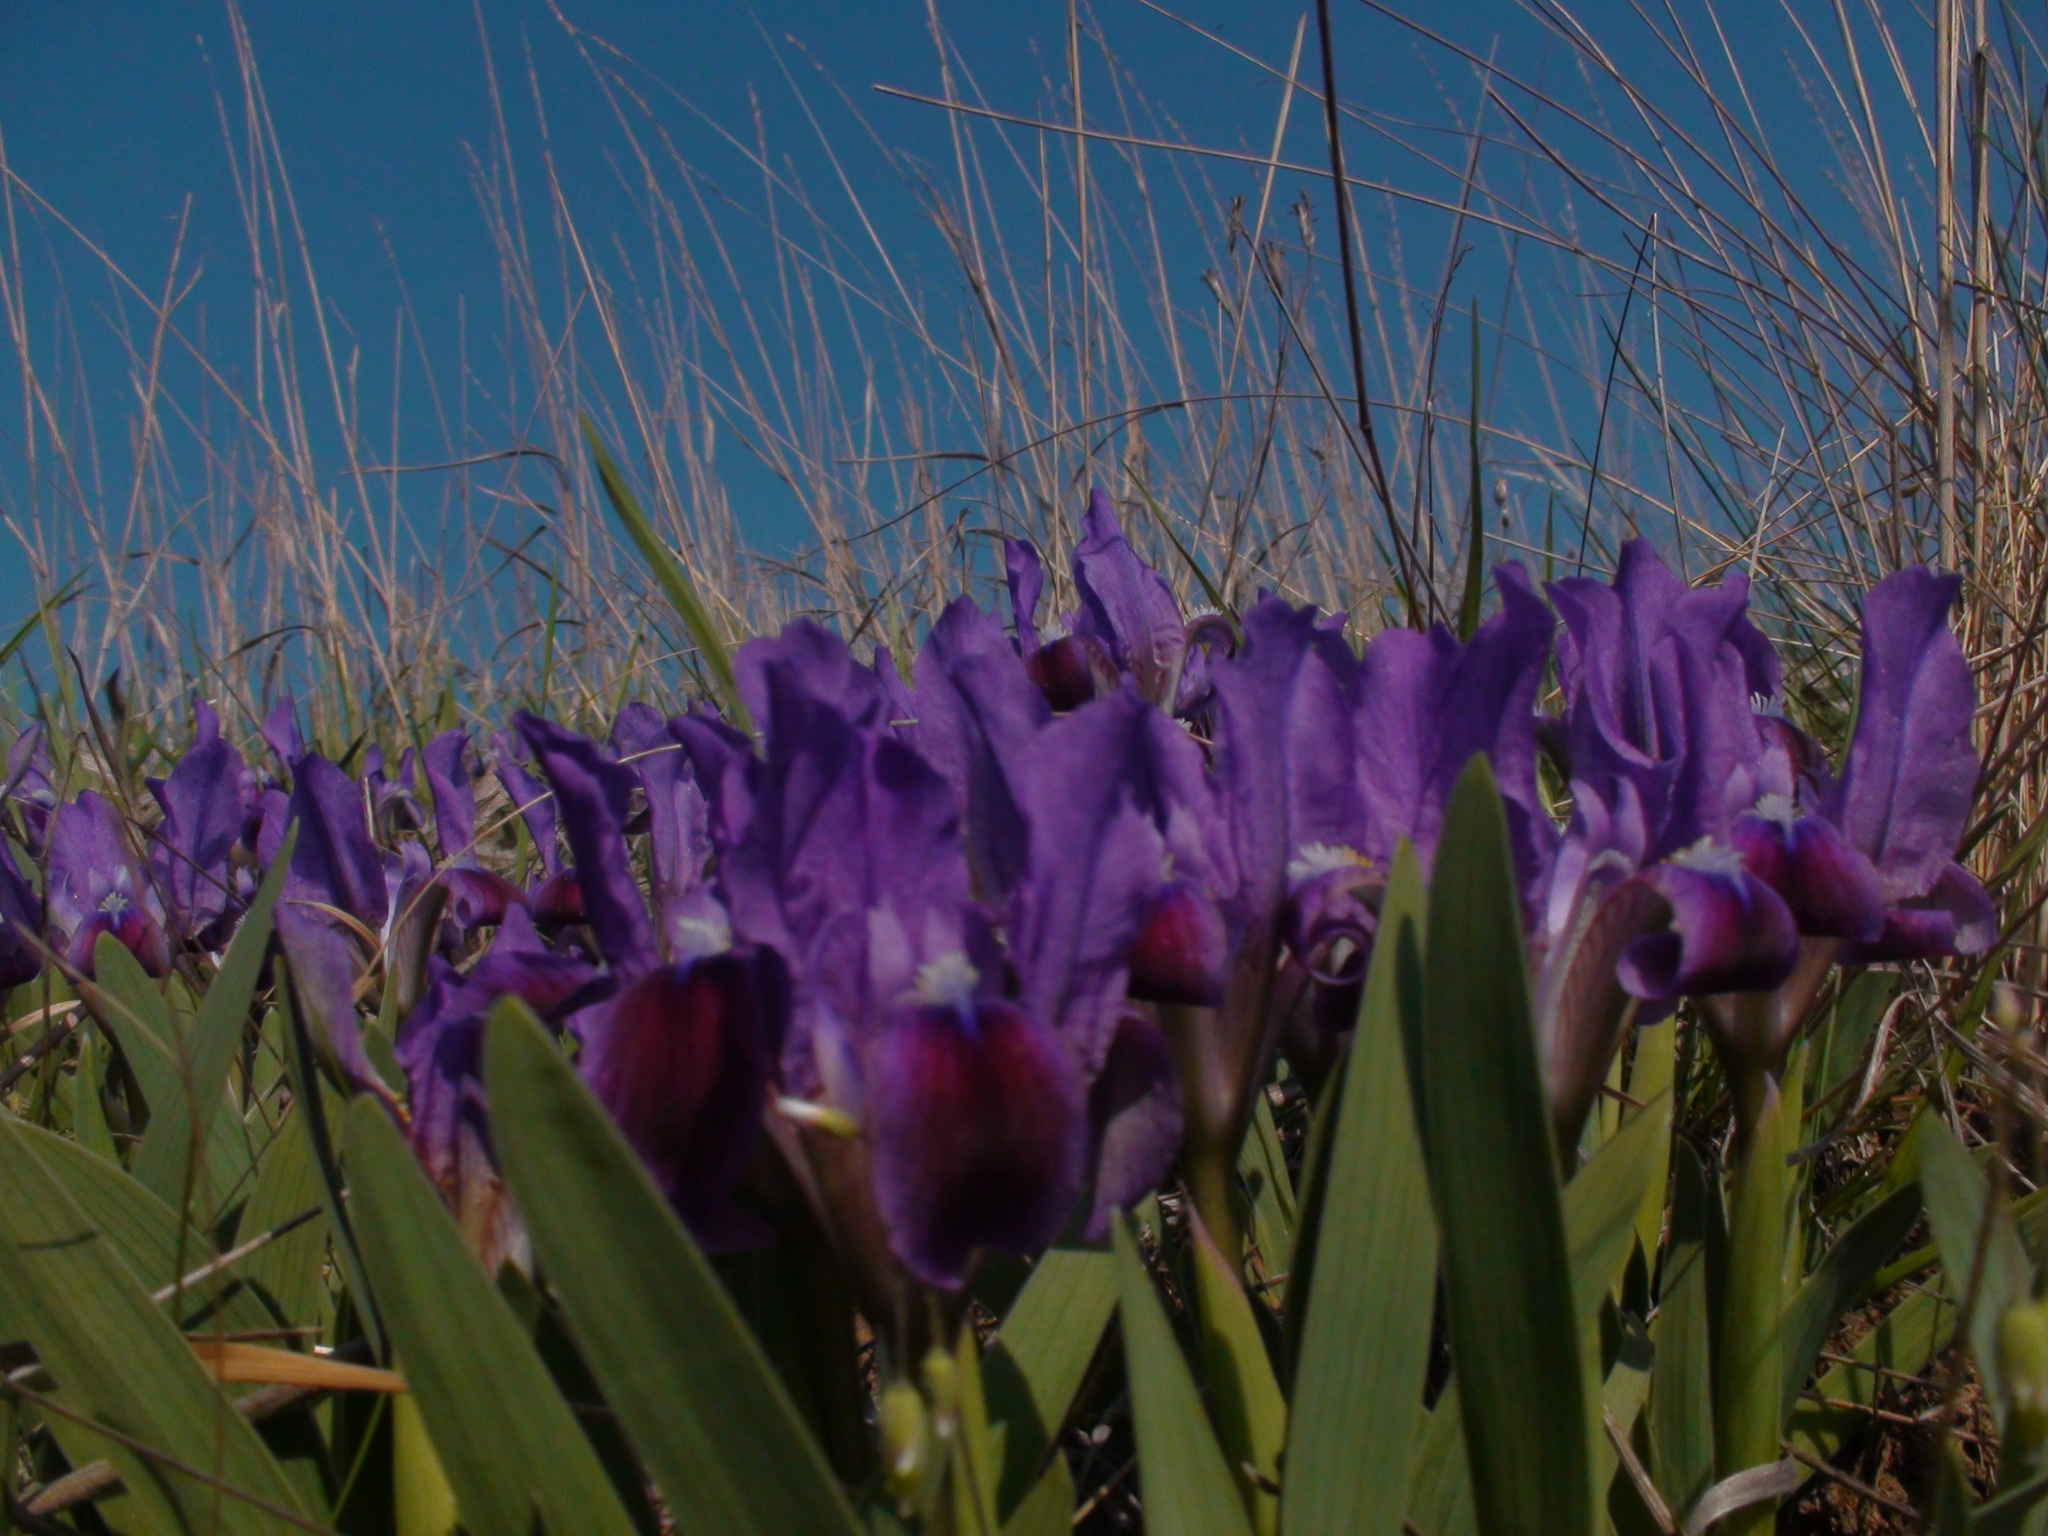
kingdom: Plantae
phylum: Tracheophyta
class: Liliopsida
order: Asparagales
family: Iridaceae
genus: Iris
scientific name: Iris pumila
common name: Dwarf iris
